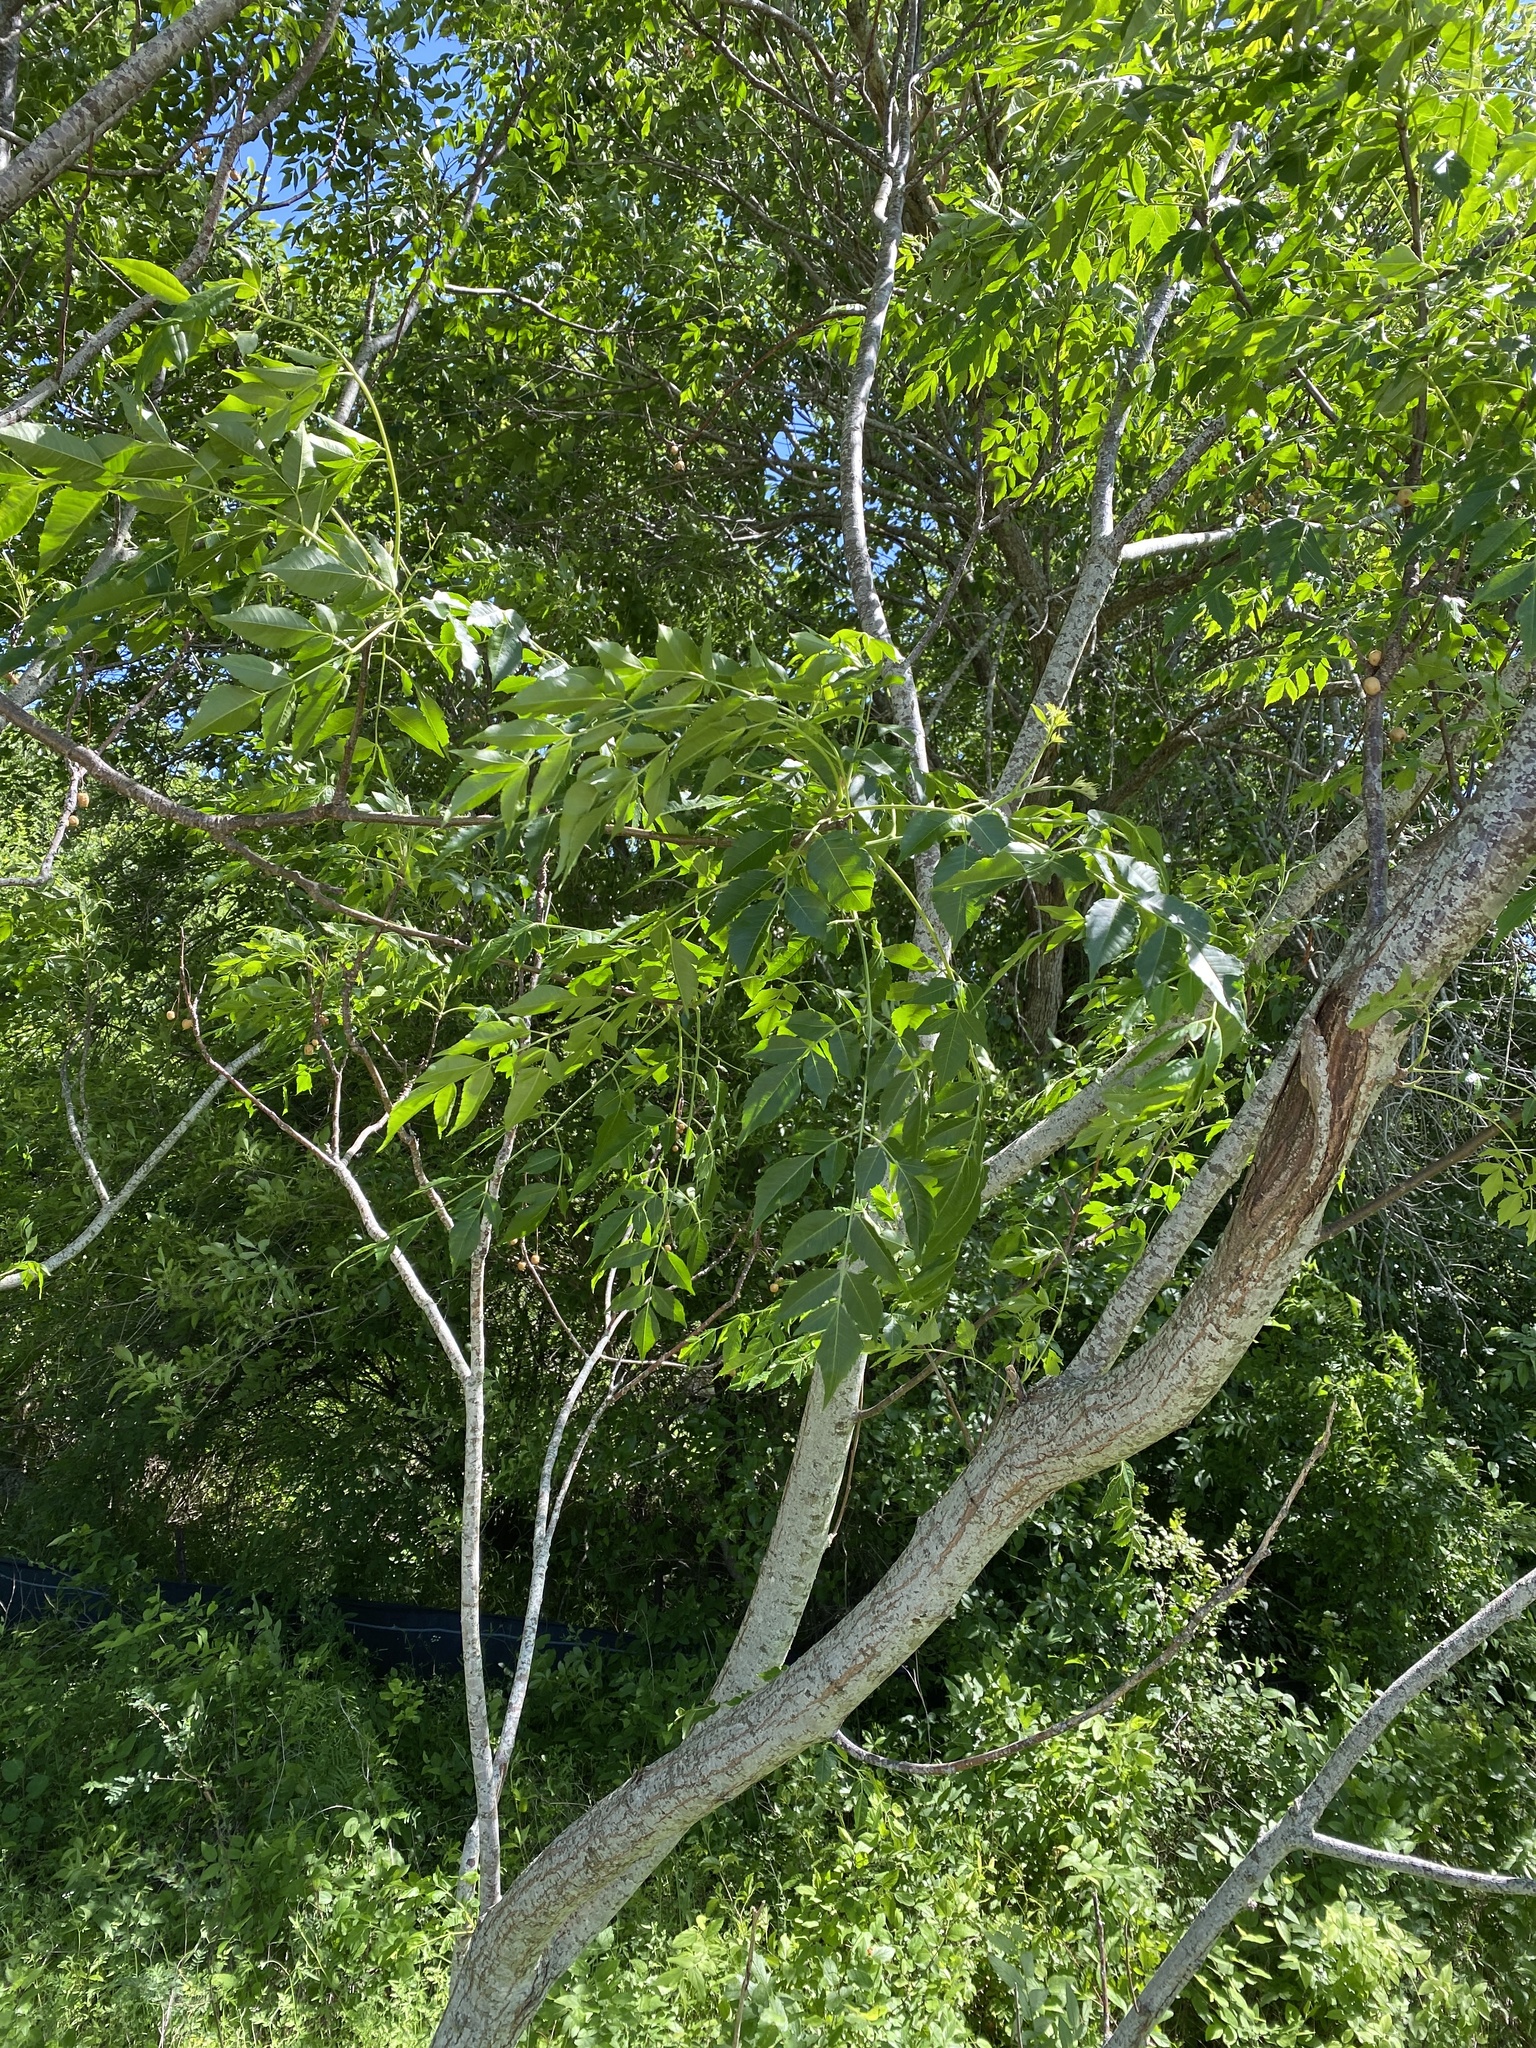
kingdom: Plantae
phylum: Tracheophyta
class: Magnoliopsida
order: Sapindales
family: Meliaceae
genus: Melia
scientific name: Melia azedarach
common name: Chinaberrytree
